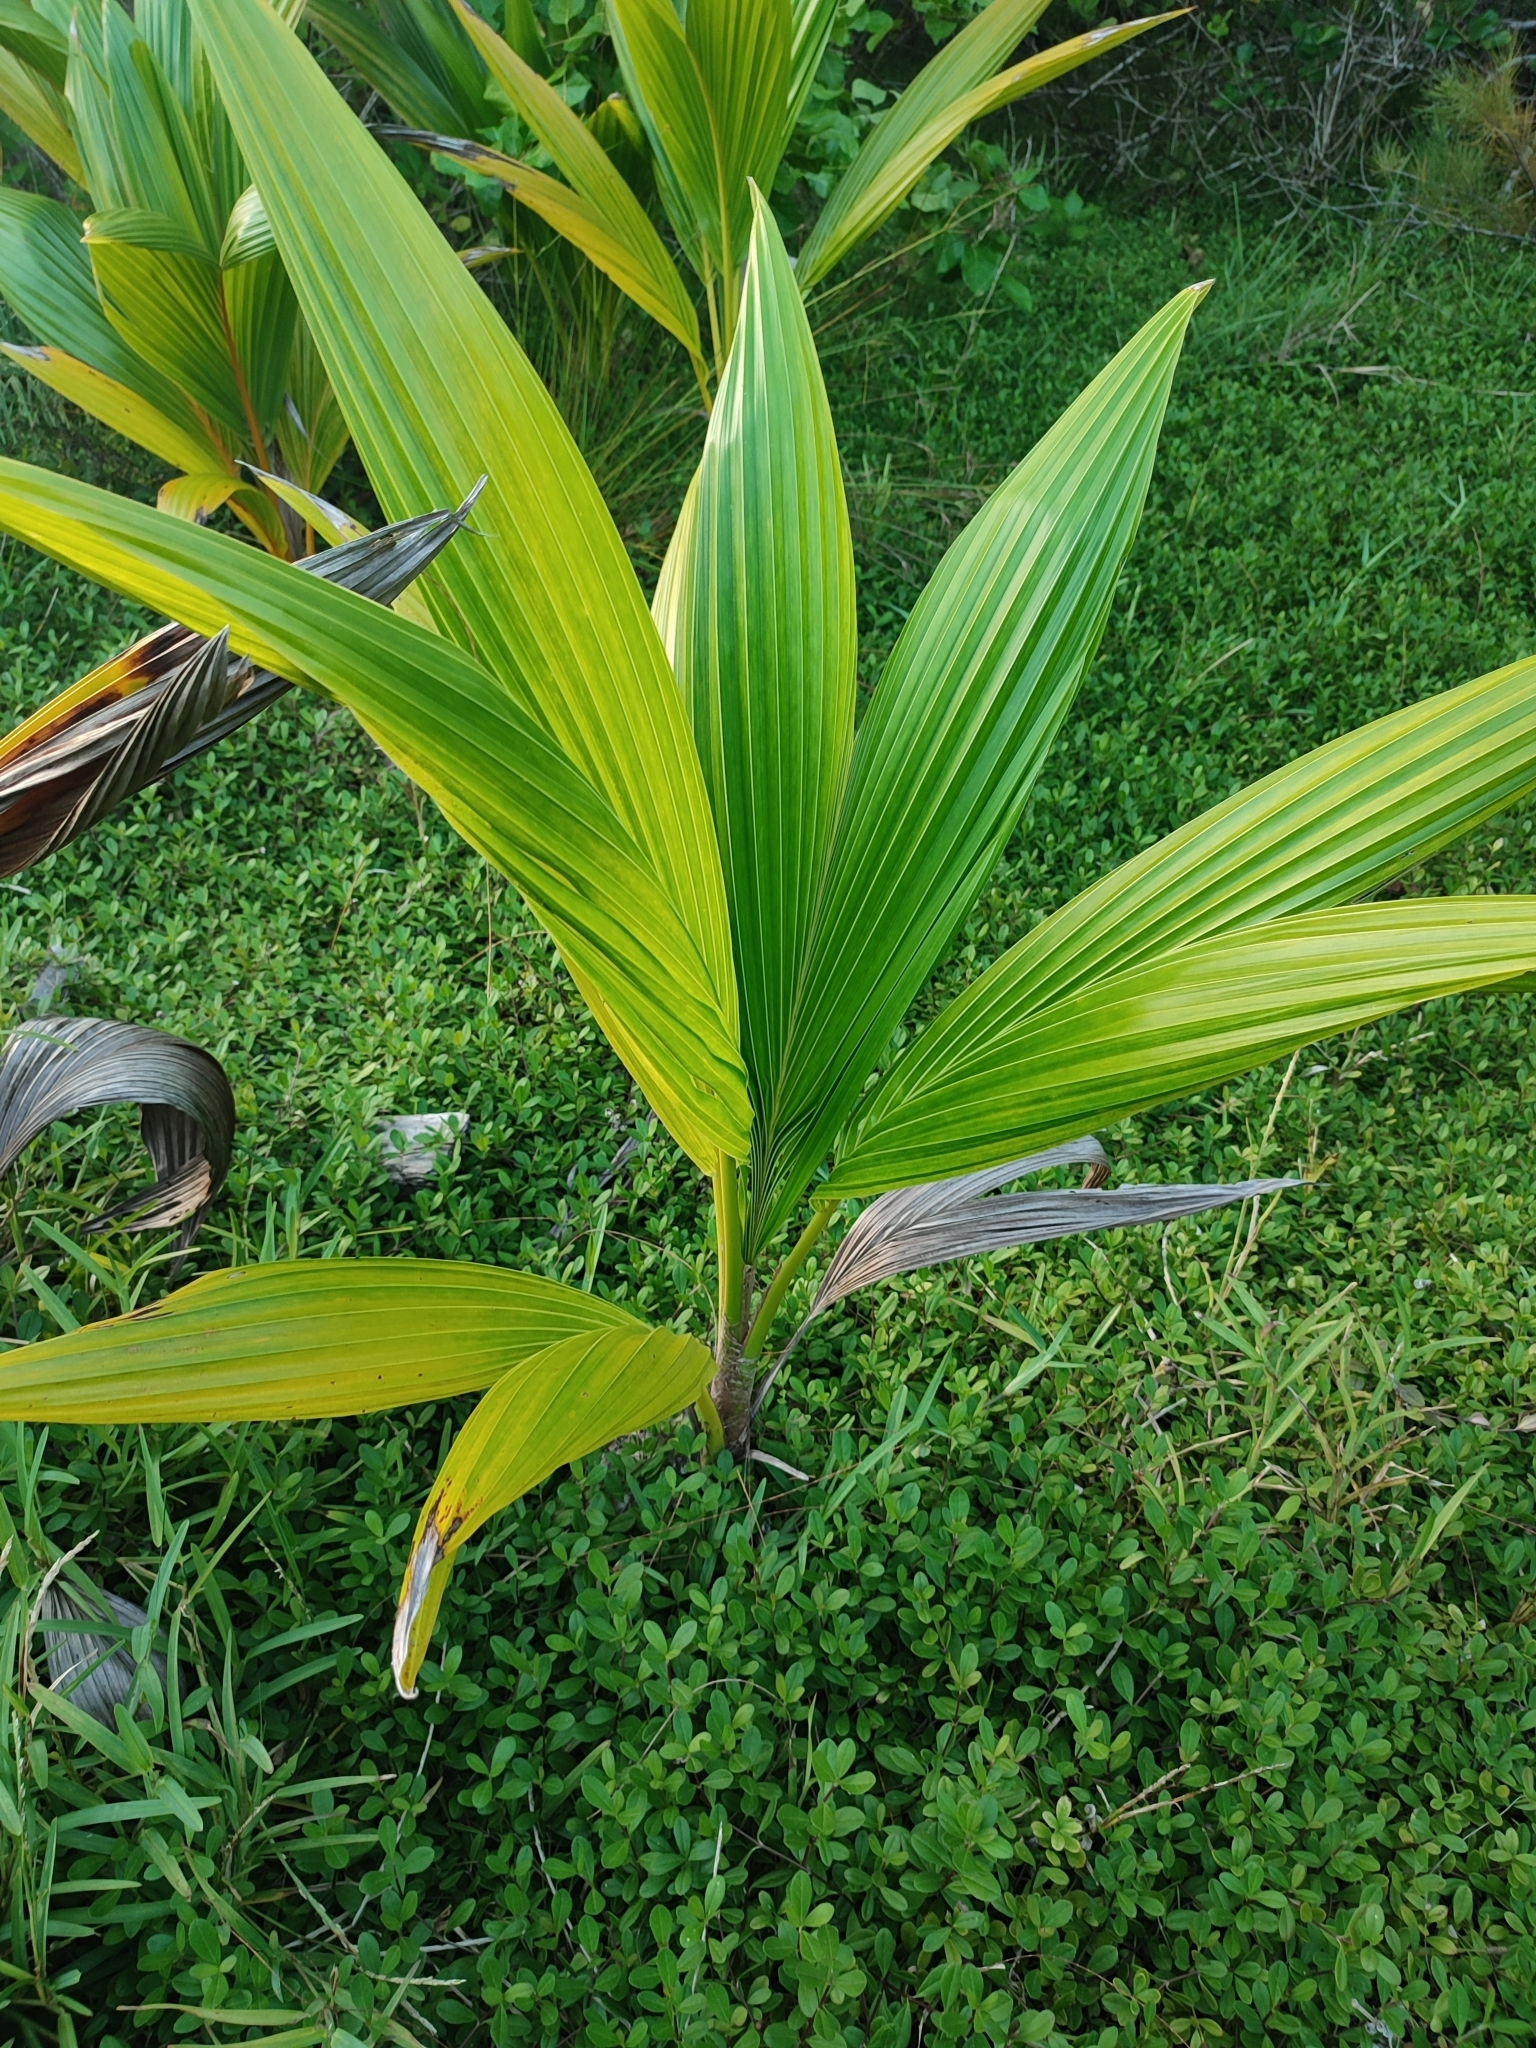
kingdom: Plantae
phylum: Tracheophyta
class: Liliopsida
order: Arecales
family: Arecaceae
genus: Cocos
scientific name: Cocos nucifera
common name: Coconut palm
